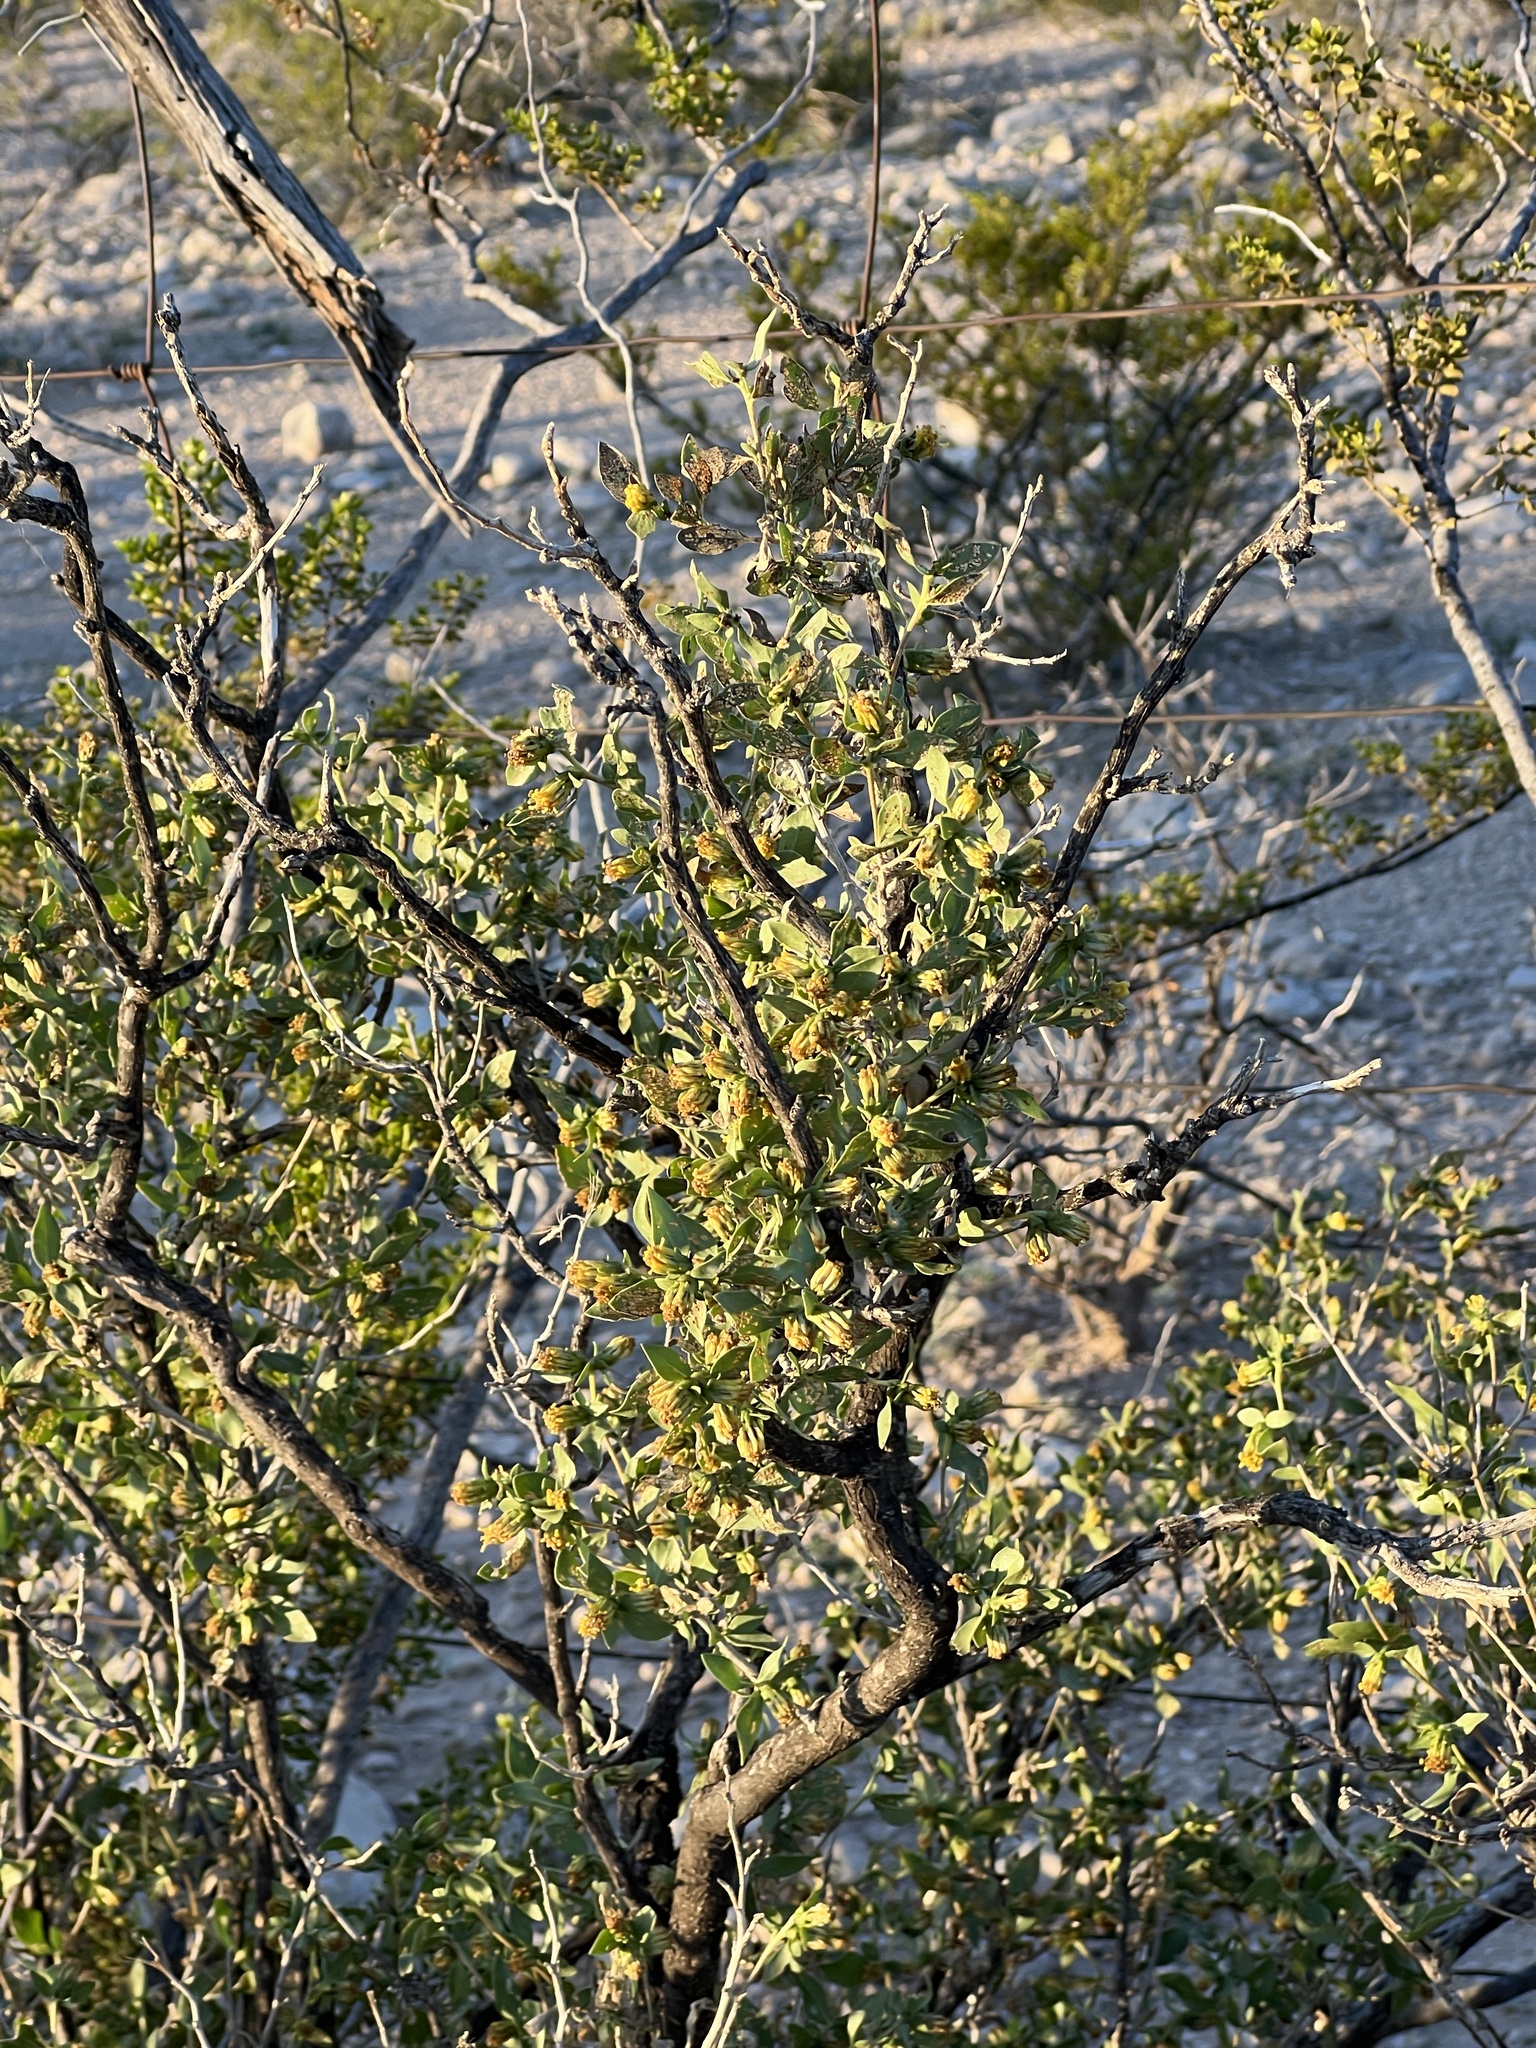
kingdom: Plantae
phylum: Tracheophyta
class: Magnoliopsida
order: Asterales
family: Asteraceae
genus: Flourensia
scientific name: Flourensia cernua
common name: Varnishbush
